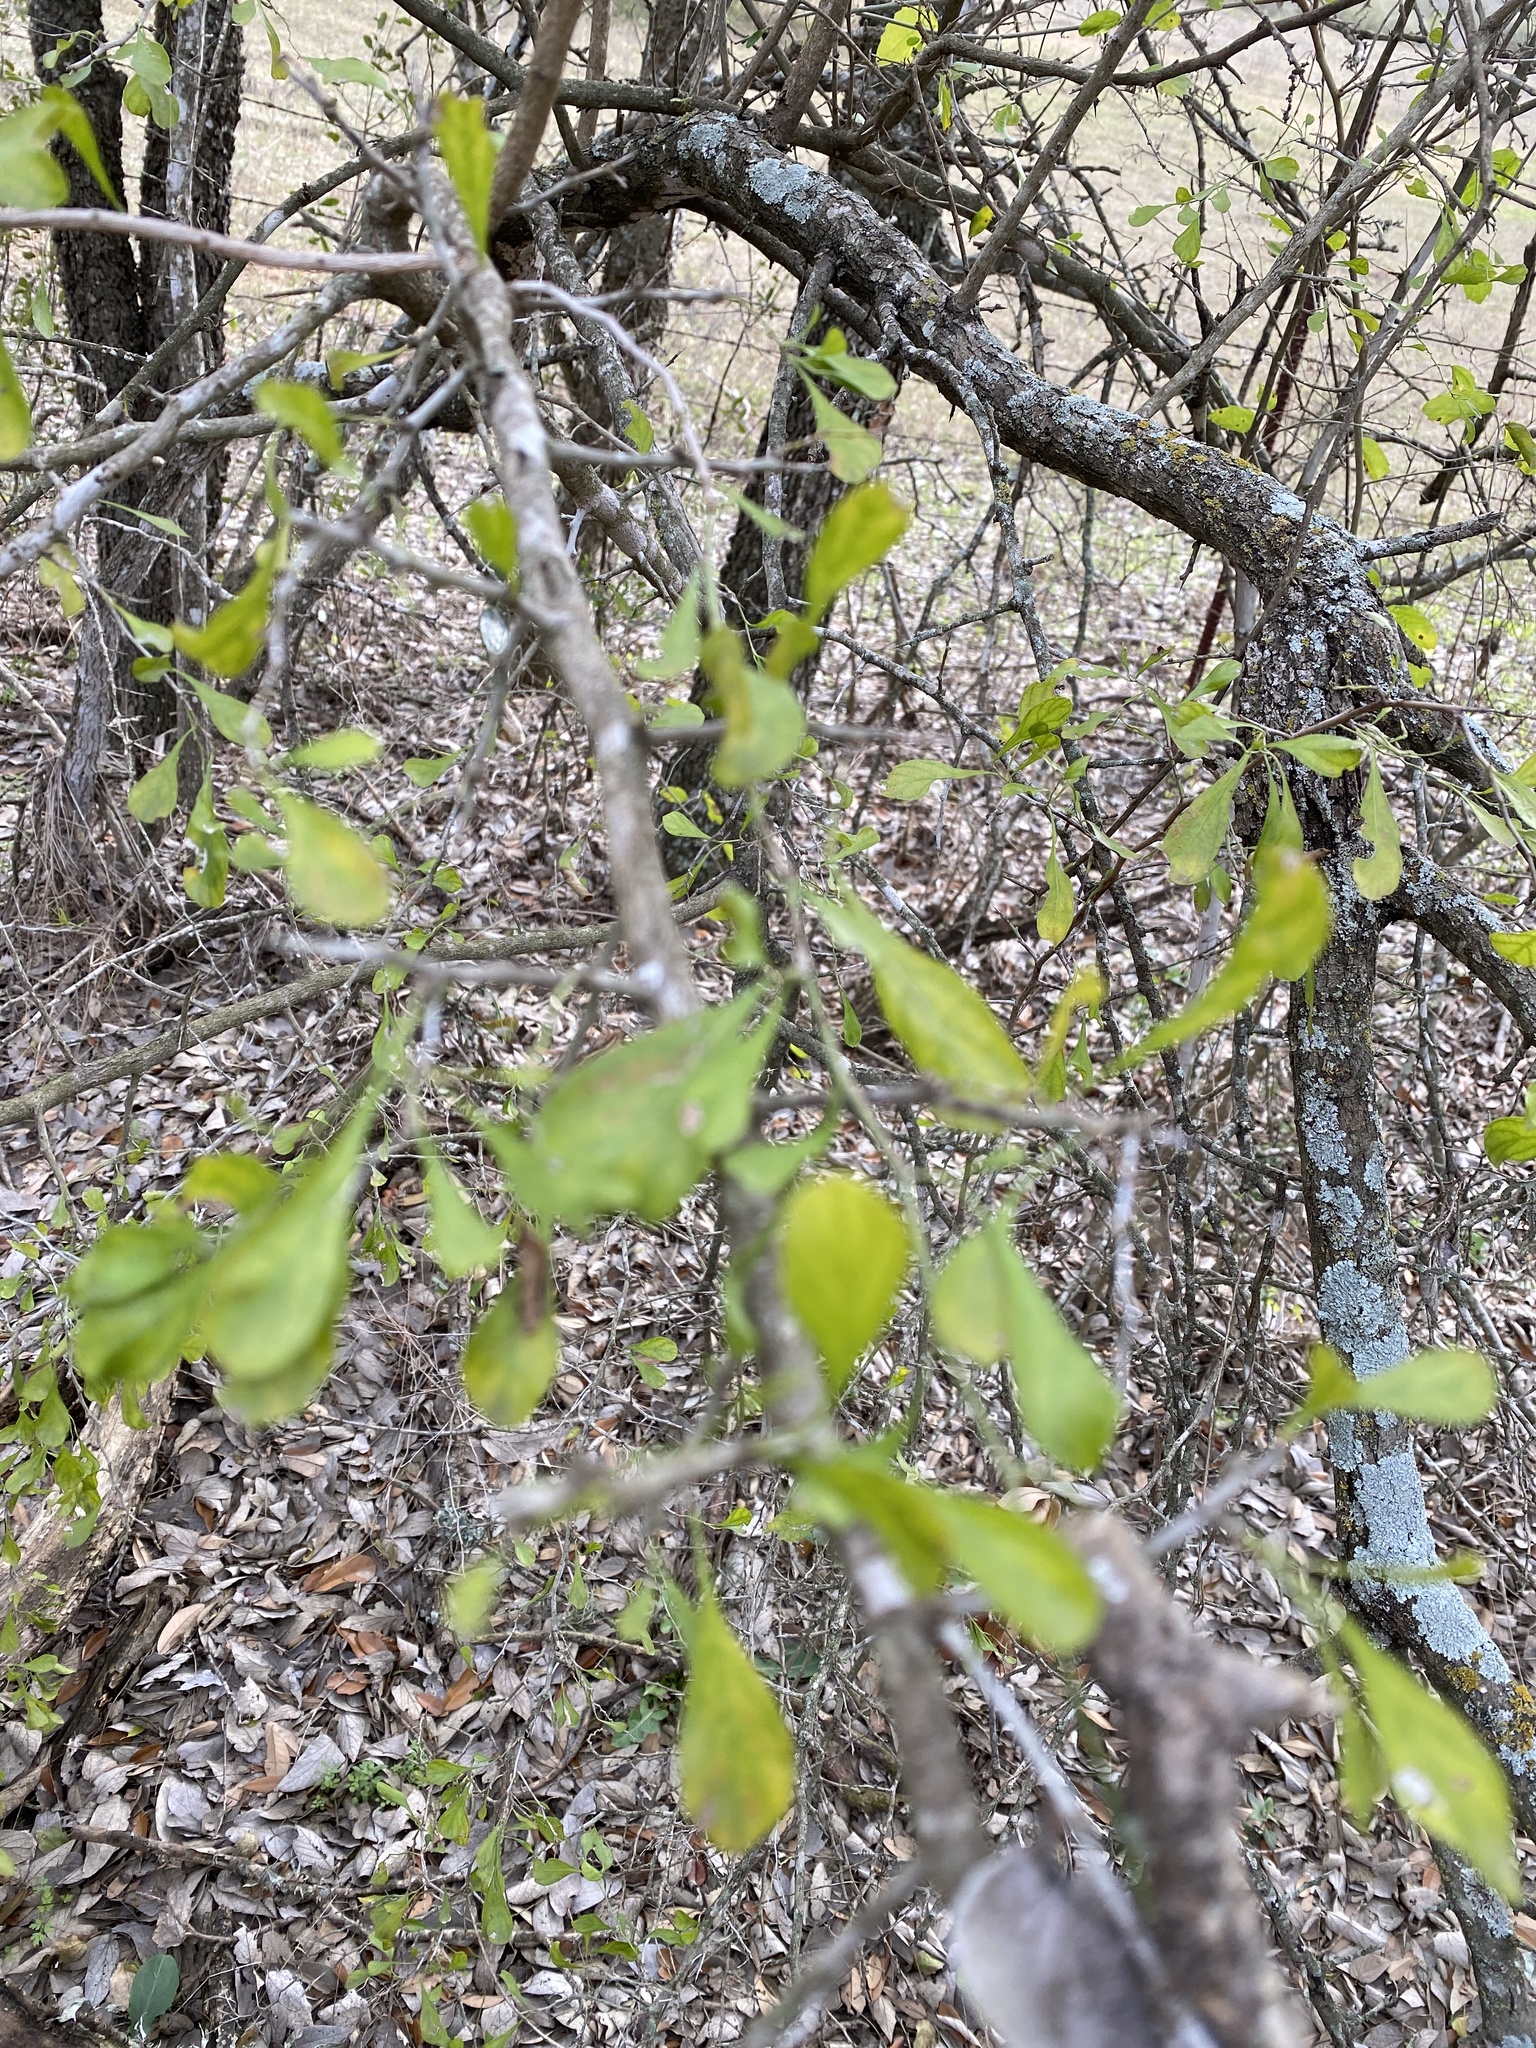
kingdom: Plantae
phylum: Tracheophyta
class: Magnoliopsida
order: Rosales
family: Rhamnaceae
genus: Condalia
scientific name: Condalia hookeri
